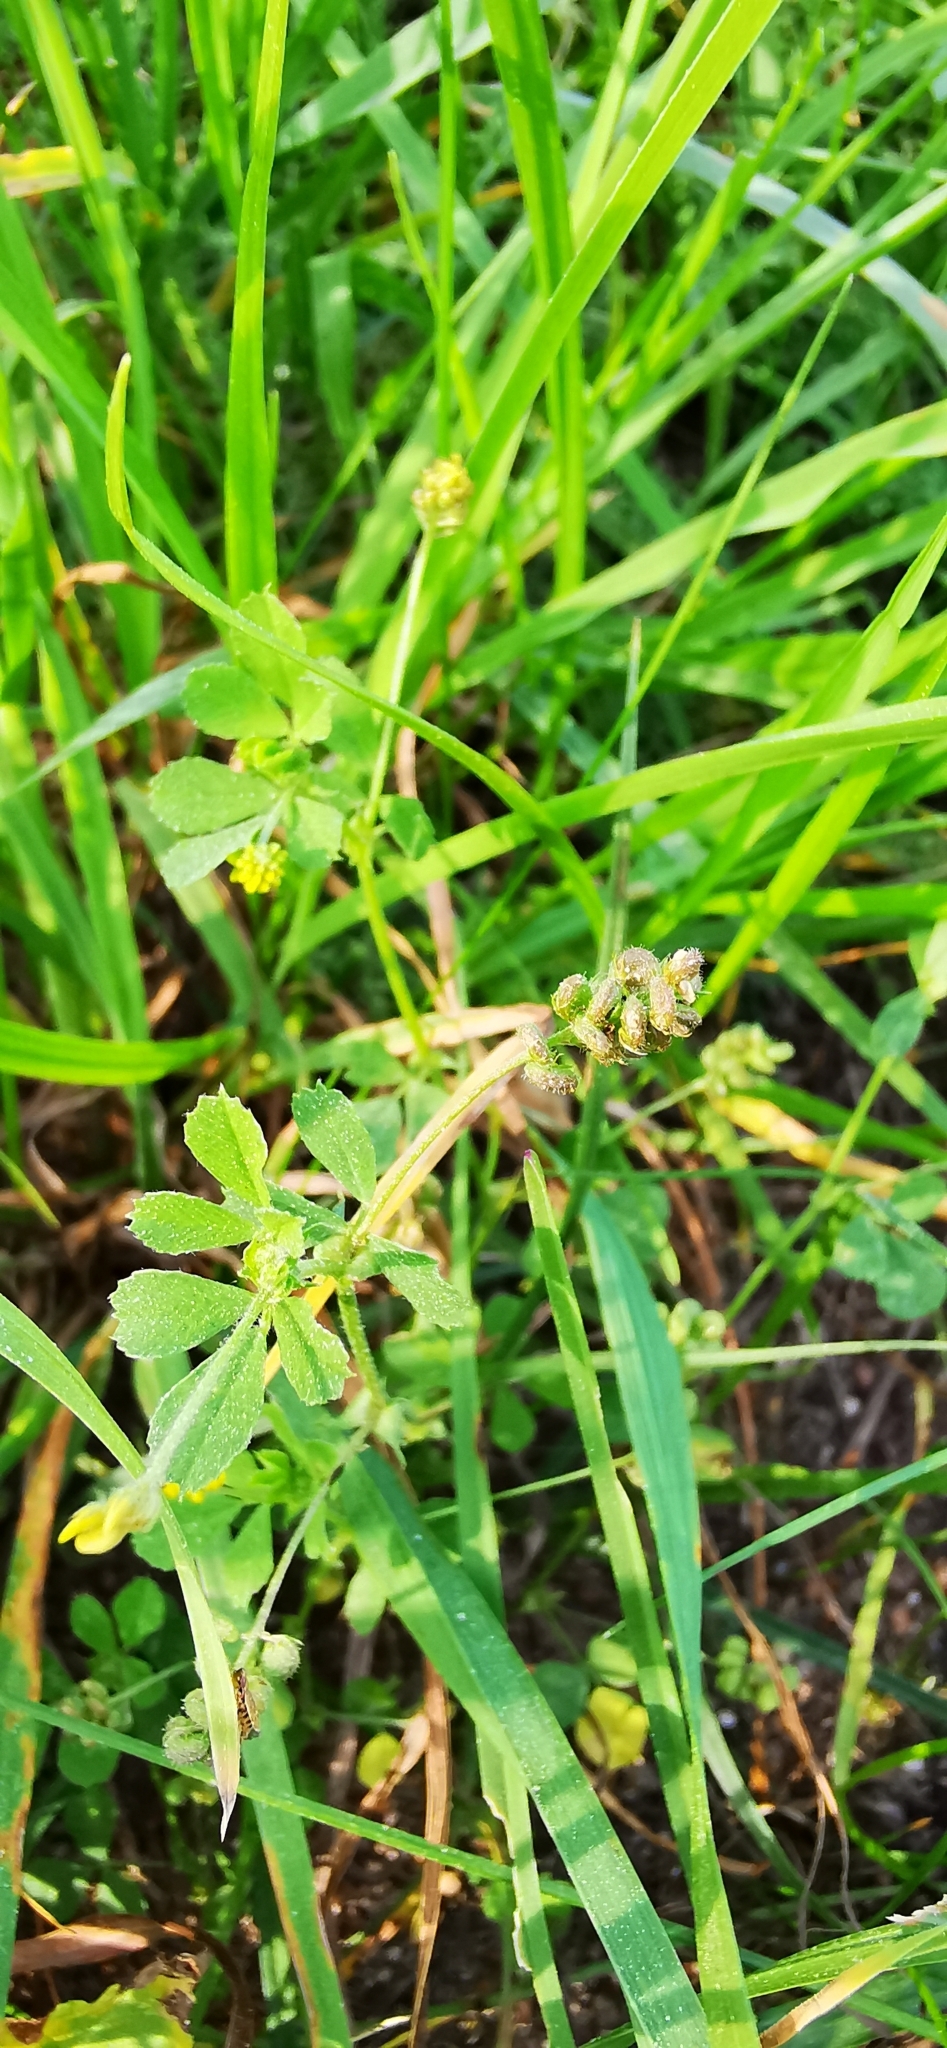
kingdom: Plantae
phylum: Tracheophyta
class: Magnoliopsida
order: Fabales
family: Fabaceae
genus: Medicago
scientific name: Medicago lupulina
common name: Black medick
